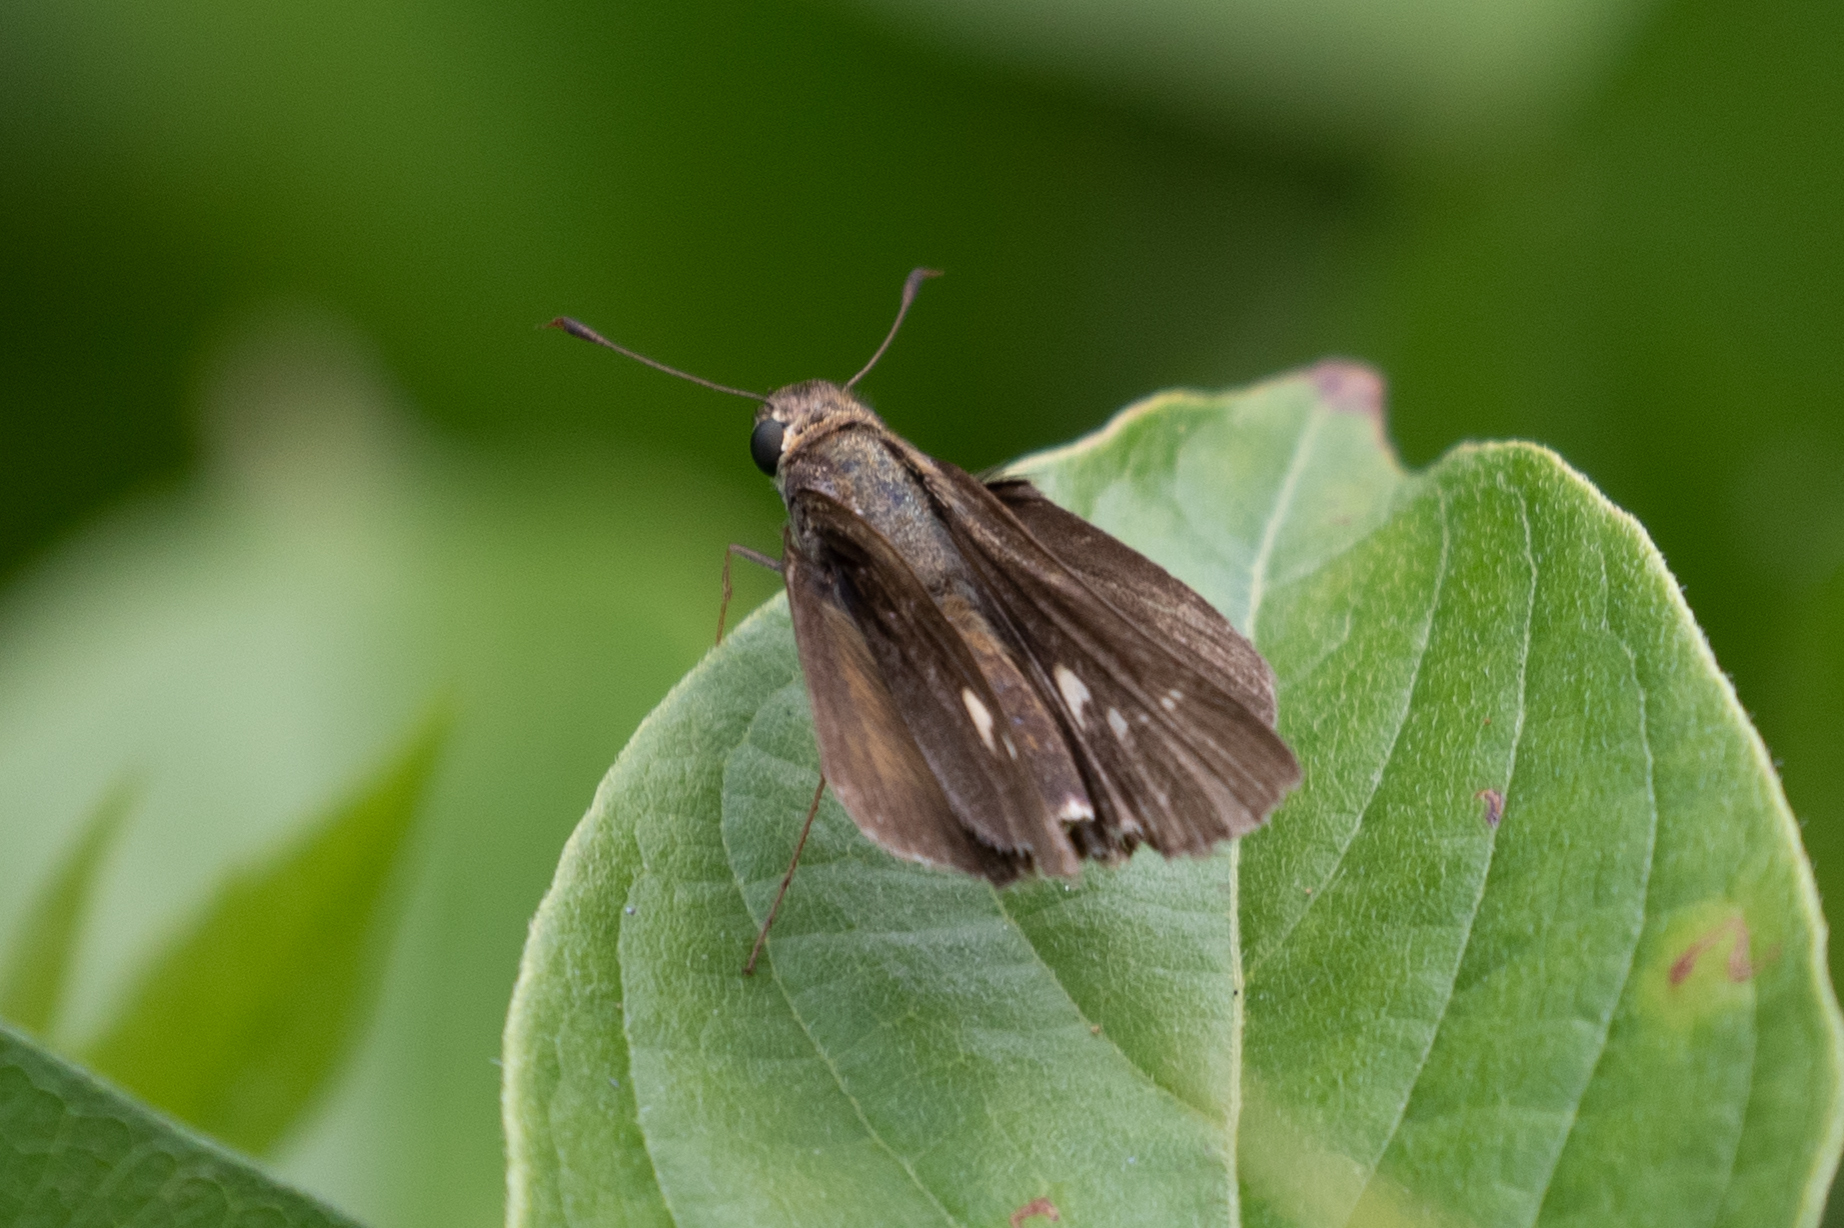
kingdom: Animalia
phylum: Arthropoda
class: Insecta
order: Lepidoptera
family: Hesperiidae
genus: Panoquina
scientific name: Panoquina ocola
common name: Ocola skipper
